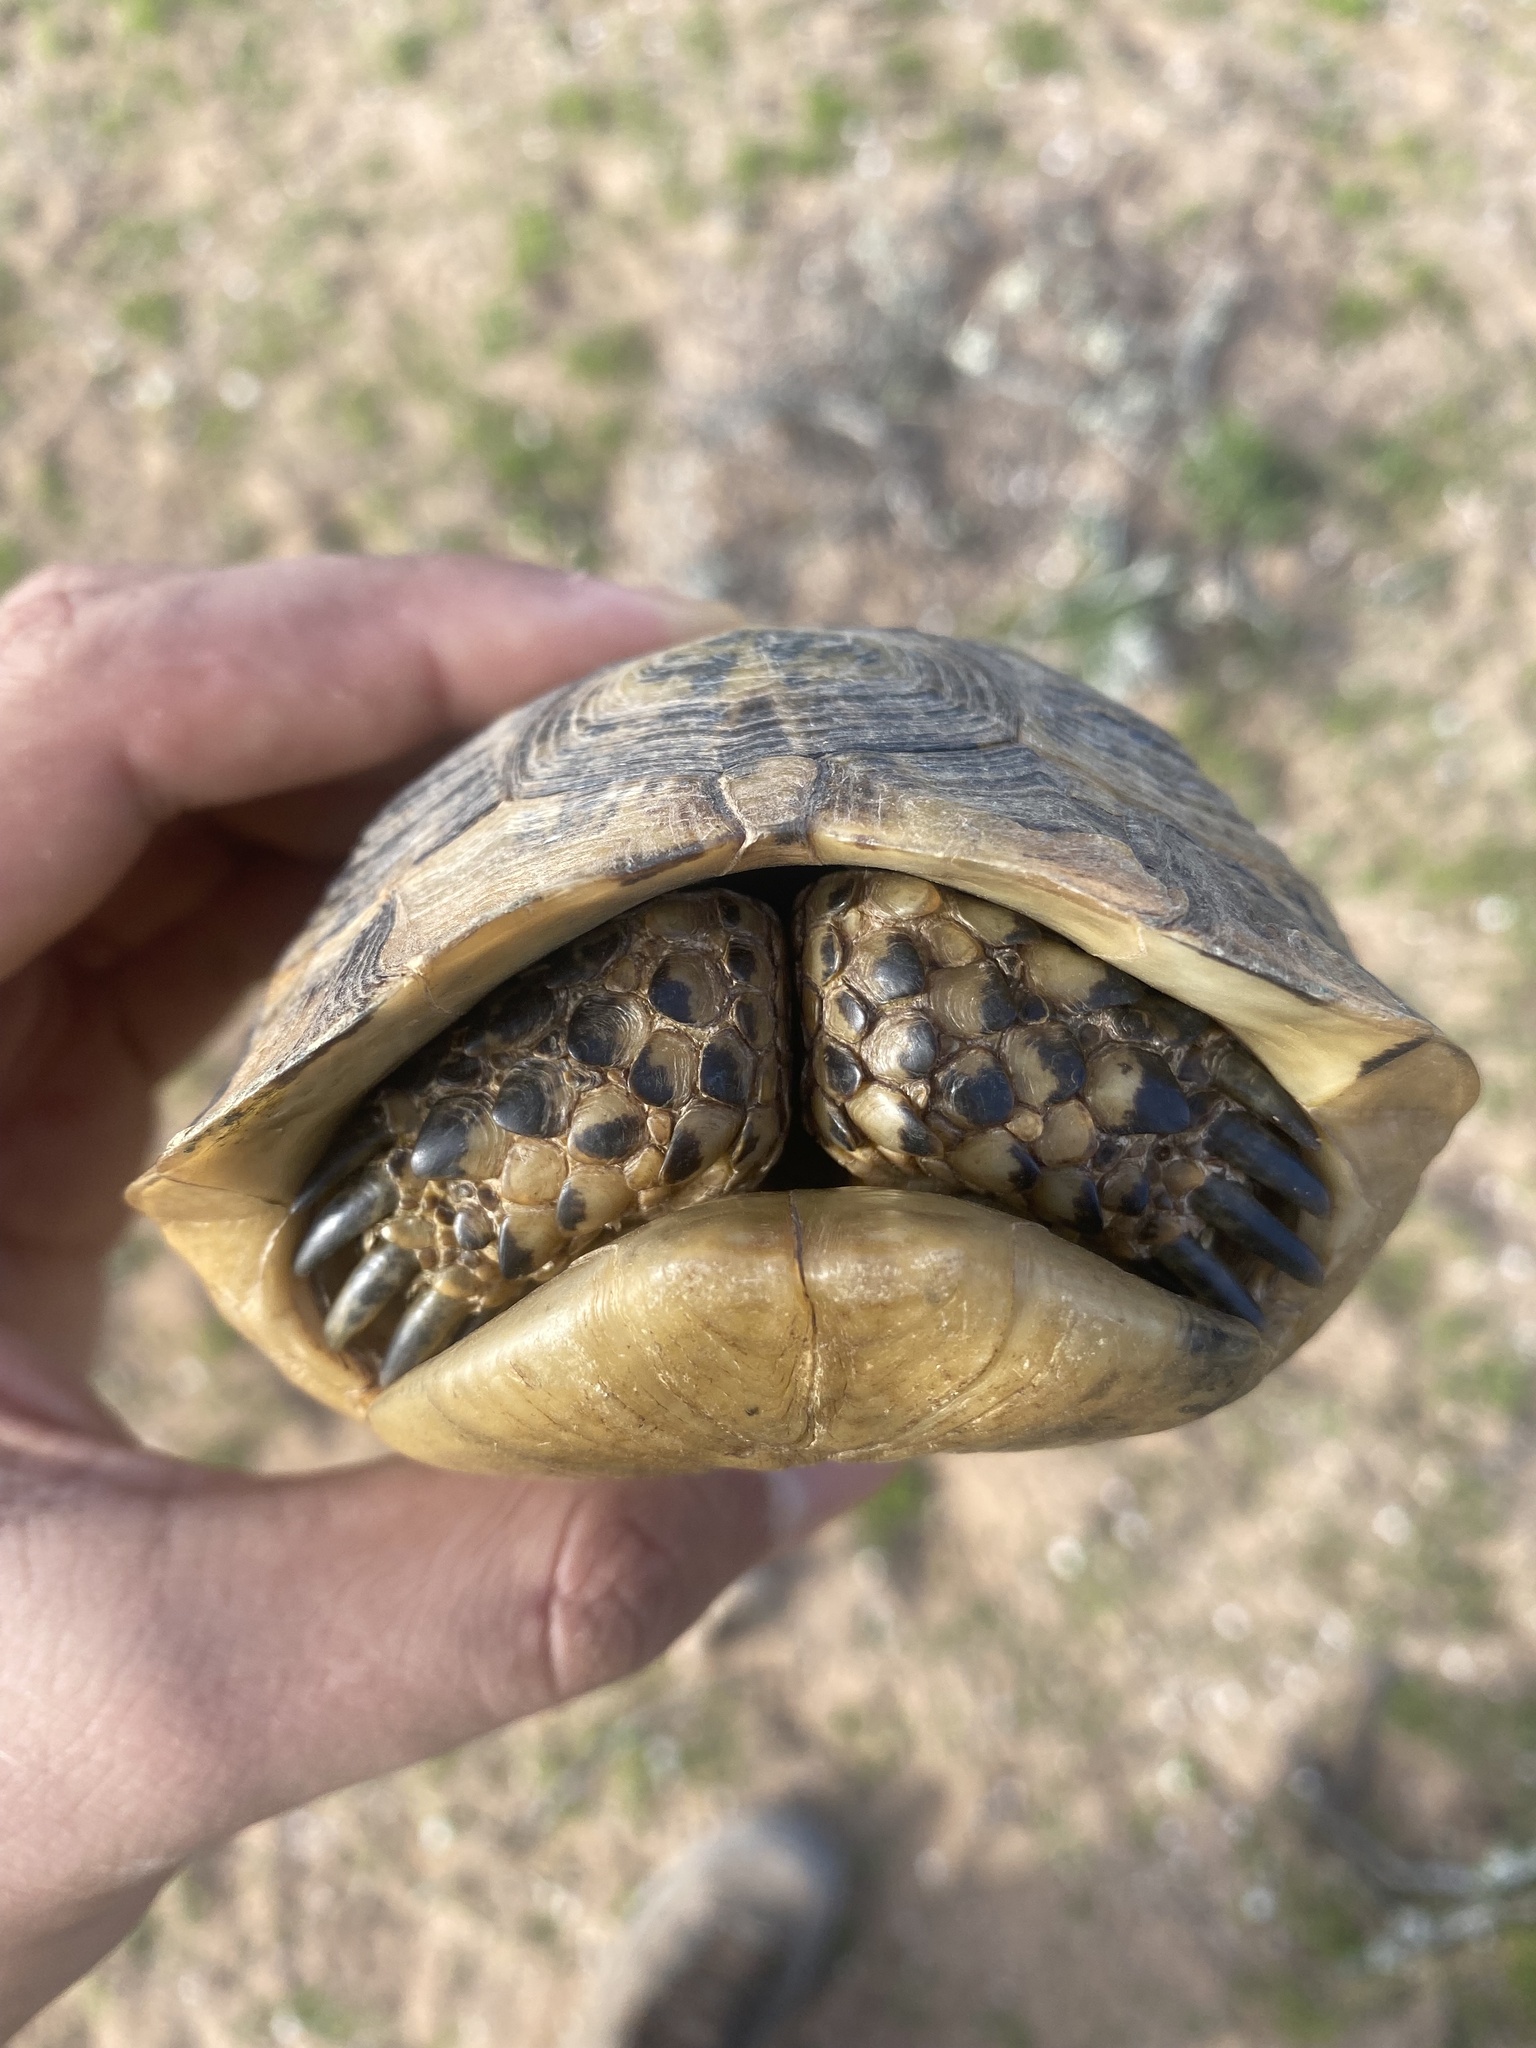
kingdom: Animalia
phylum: Chordata
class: Testudines
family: Testudinidae
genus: Testudo
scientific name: Testudo graeca
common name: Common tortoise
